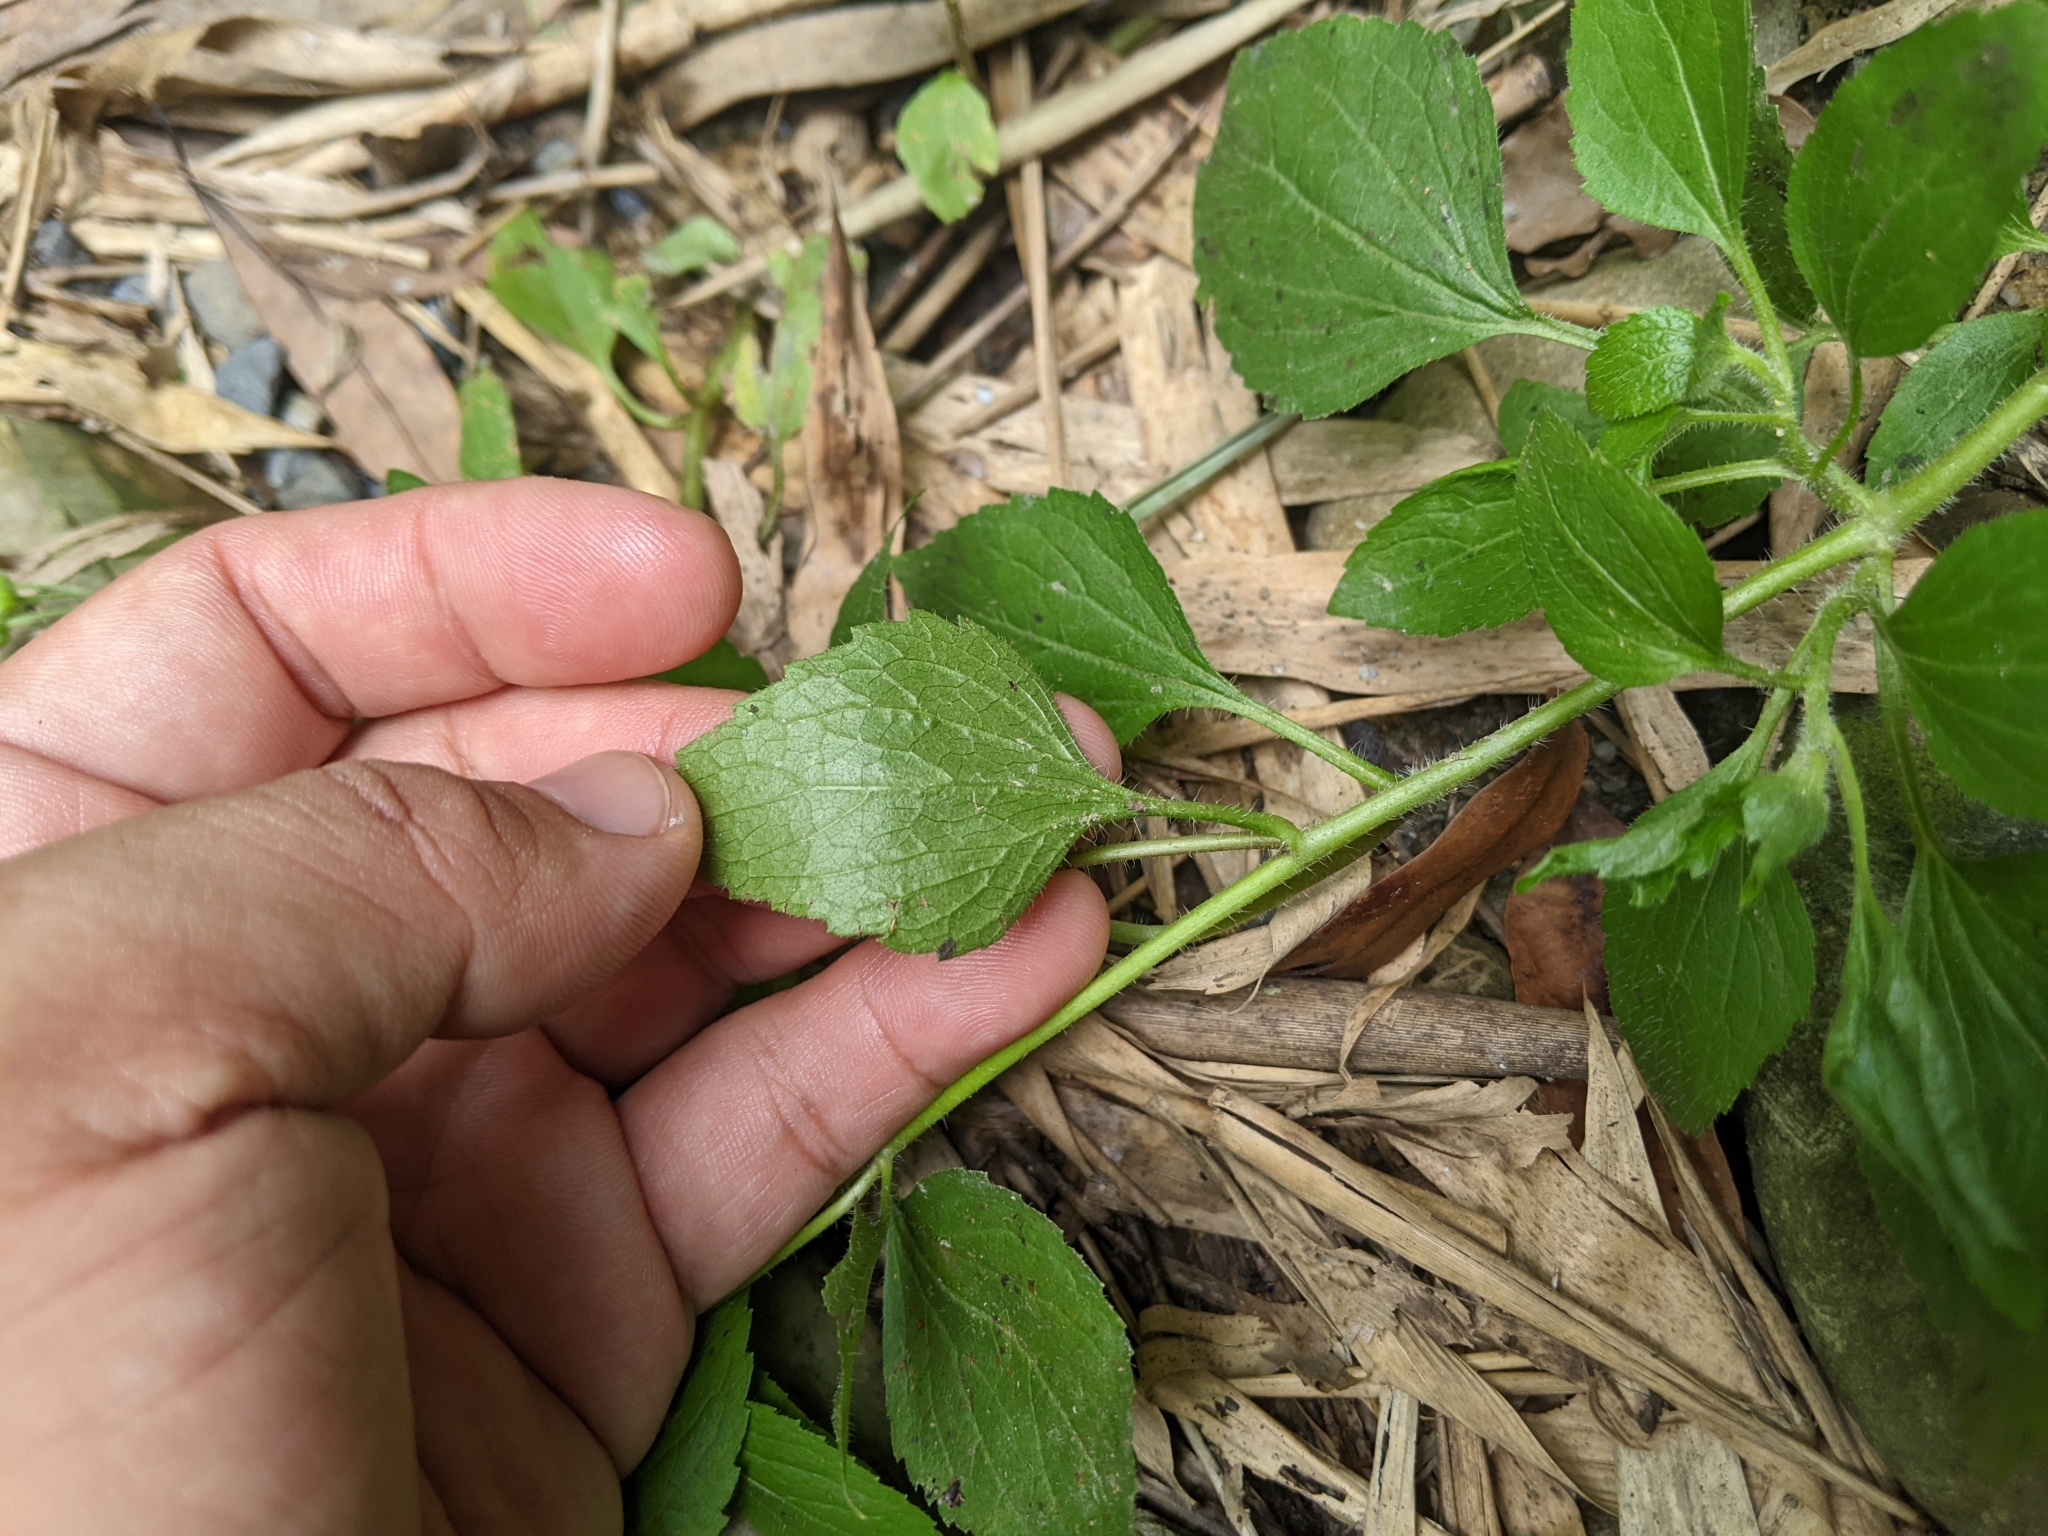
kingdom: Plantae
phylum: Tracheophyta
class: Magnoliopsida
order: Asterales
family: Asteraceae
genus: Ageratum
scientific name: Ageratum conyzoides
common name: Tropical whiteweed
